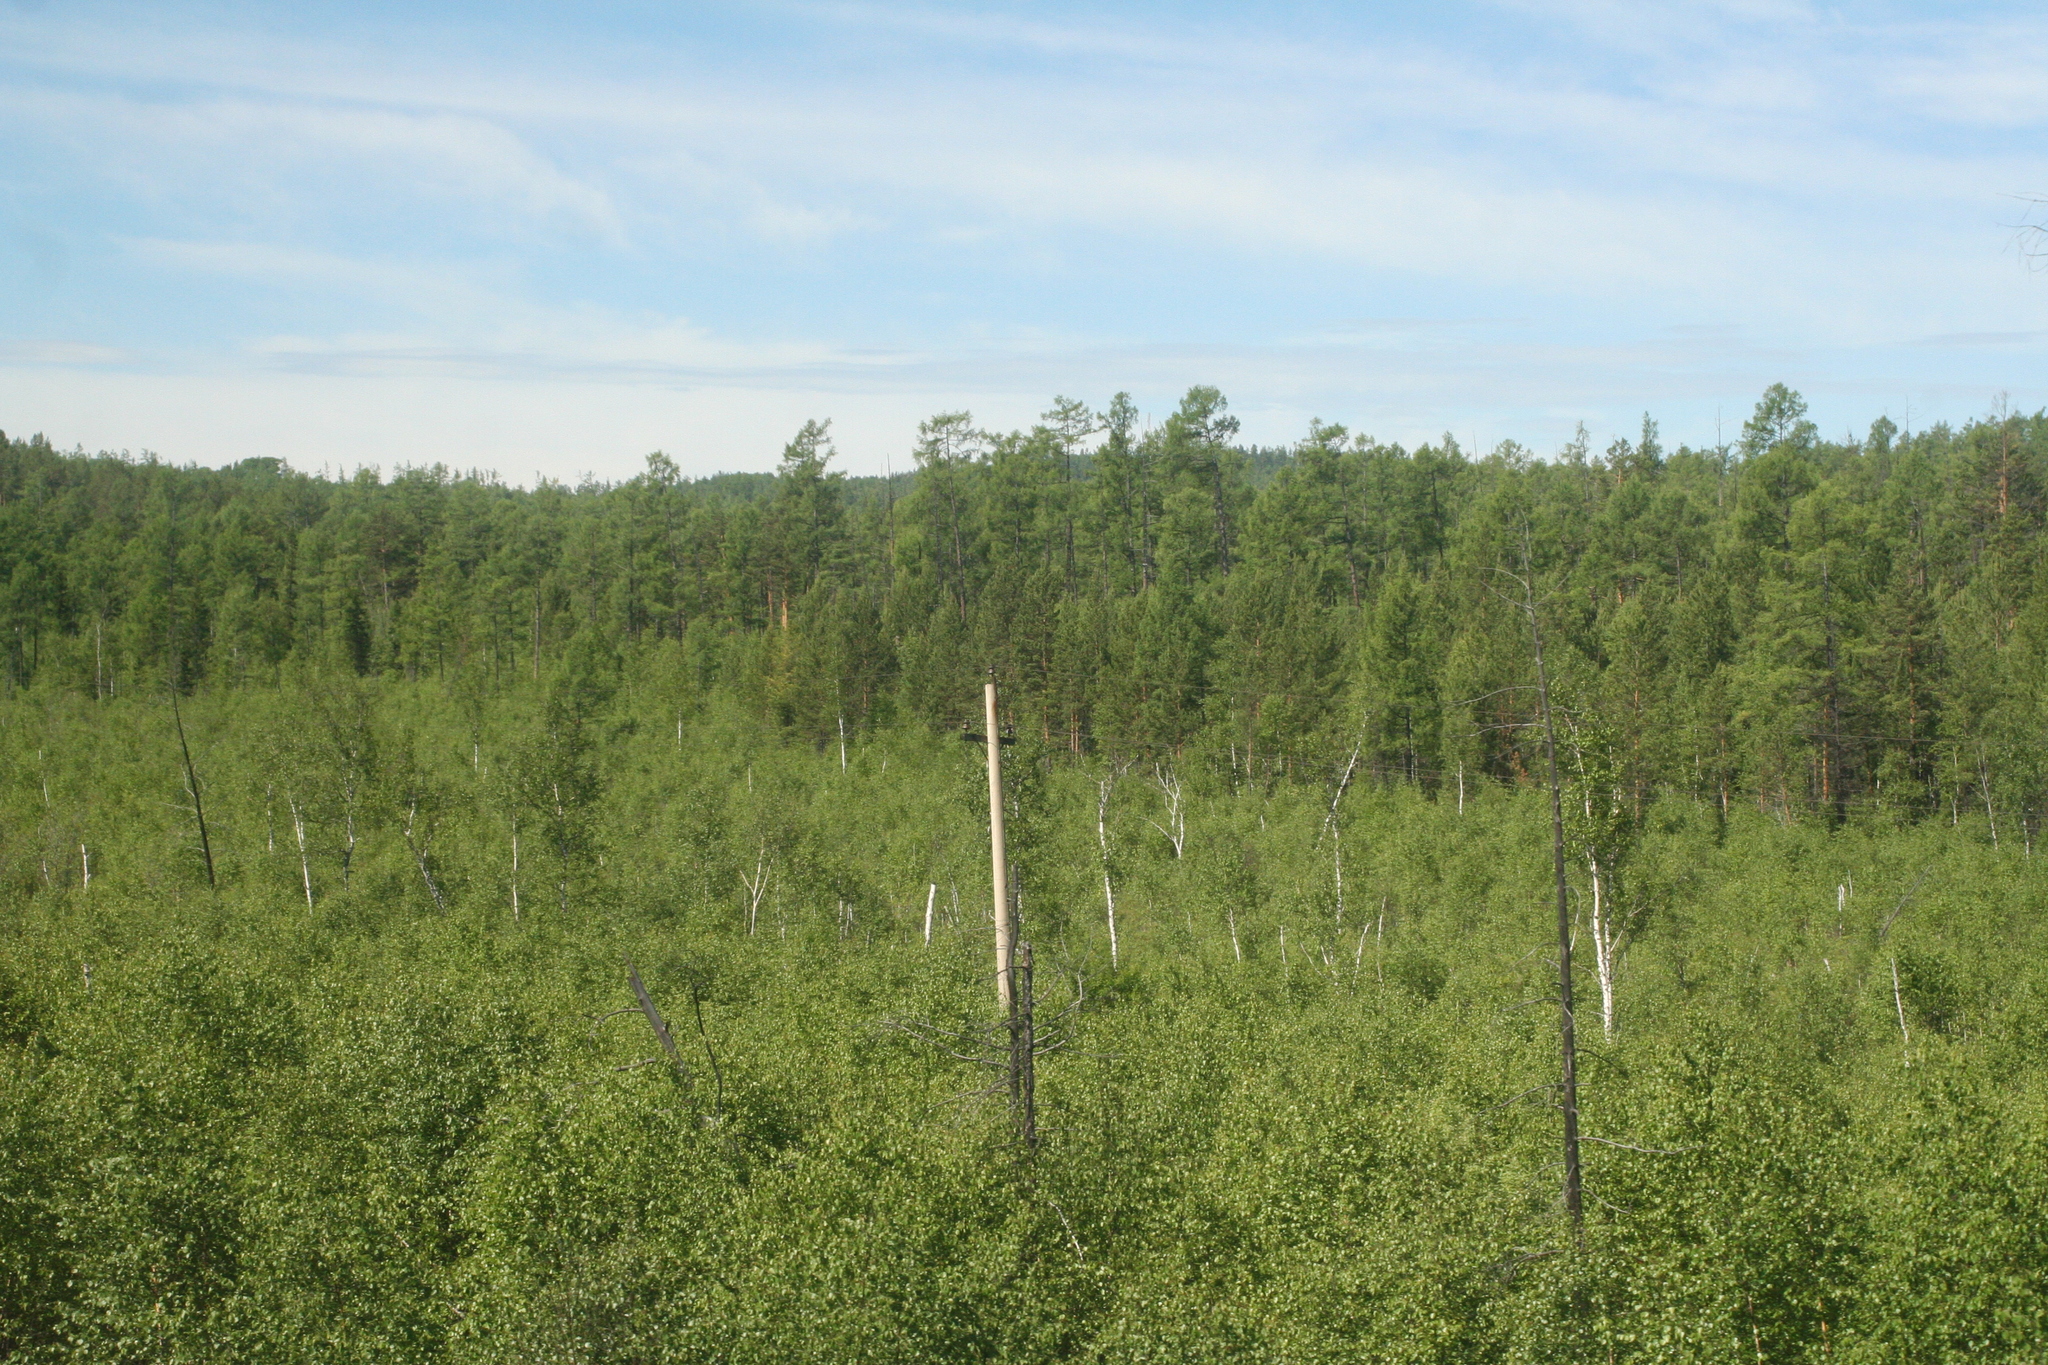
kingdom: Plantae
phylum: Tracheophyta
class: Pinopsida
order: Pinales
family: Pinaceae
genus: Pinus
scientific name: Pinus sibirica
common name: Siberian pine
